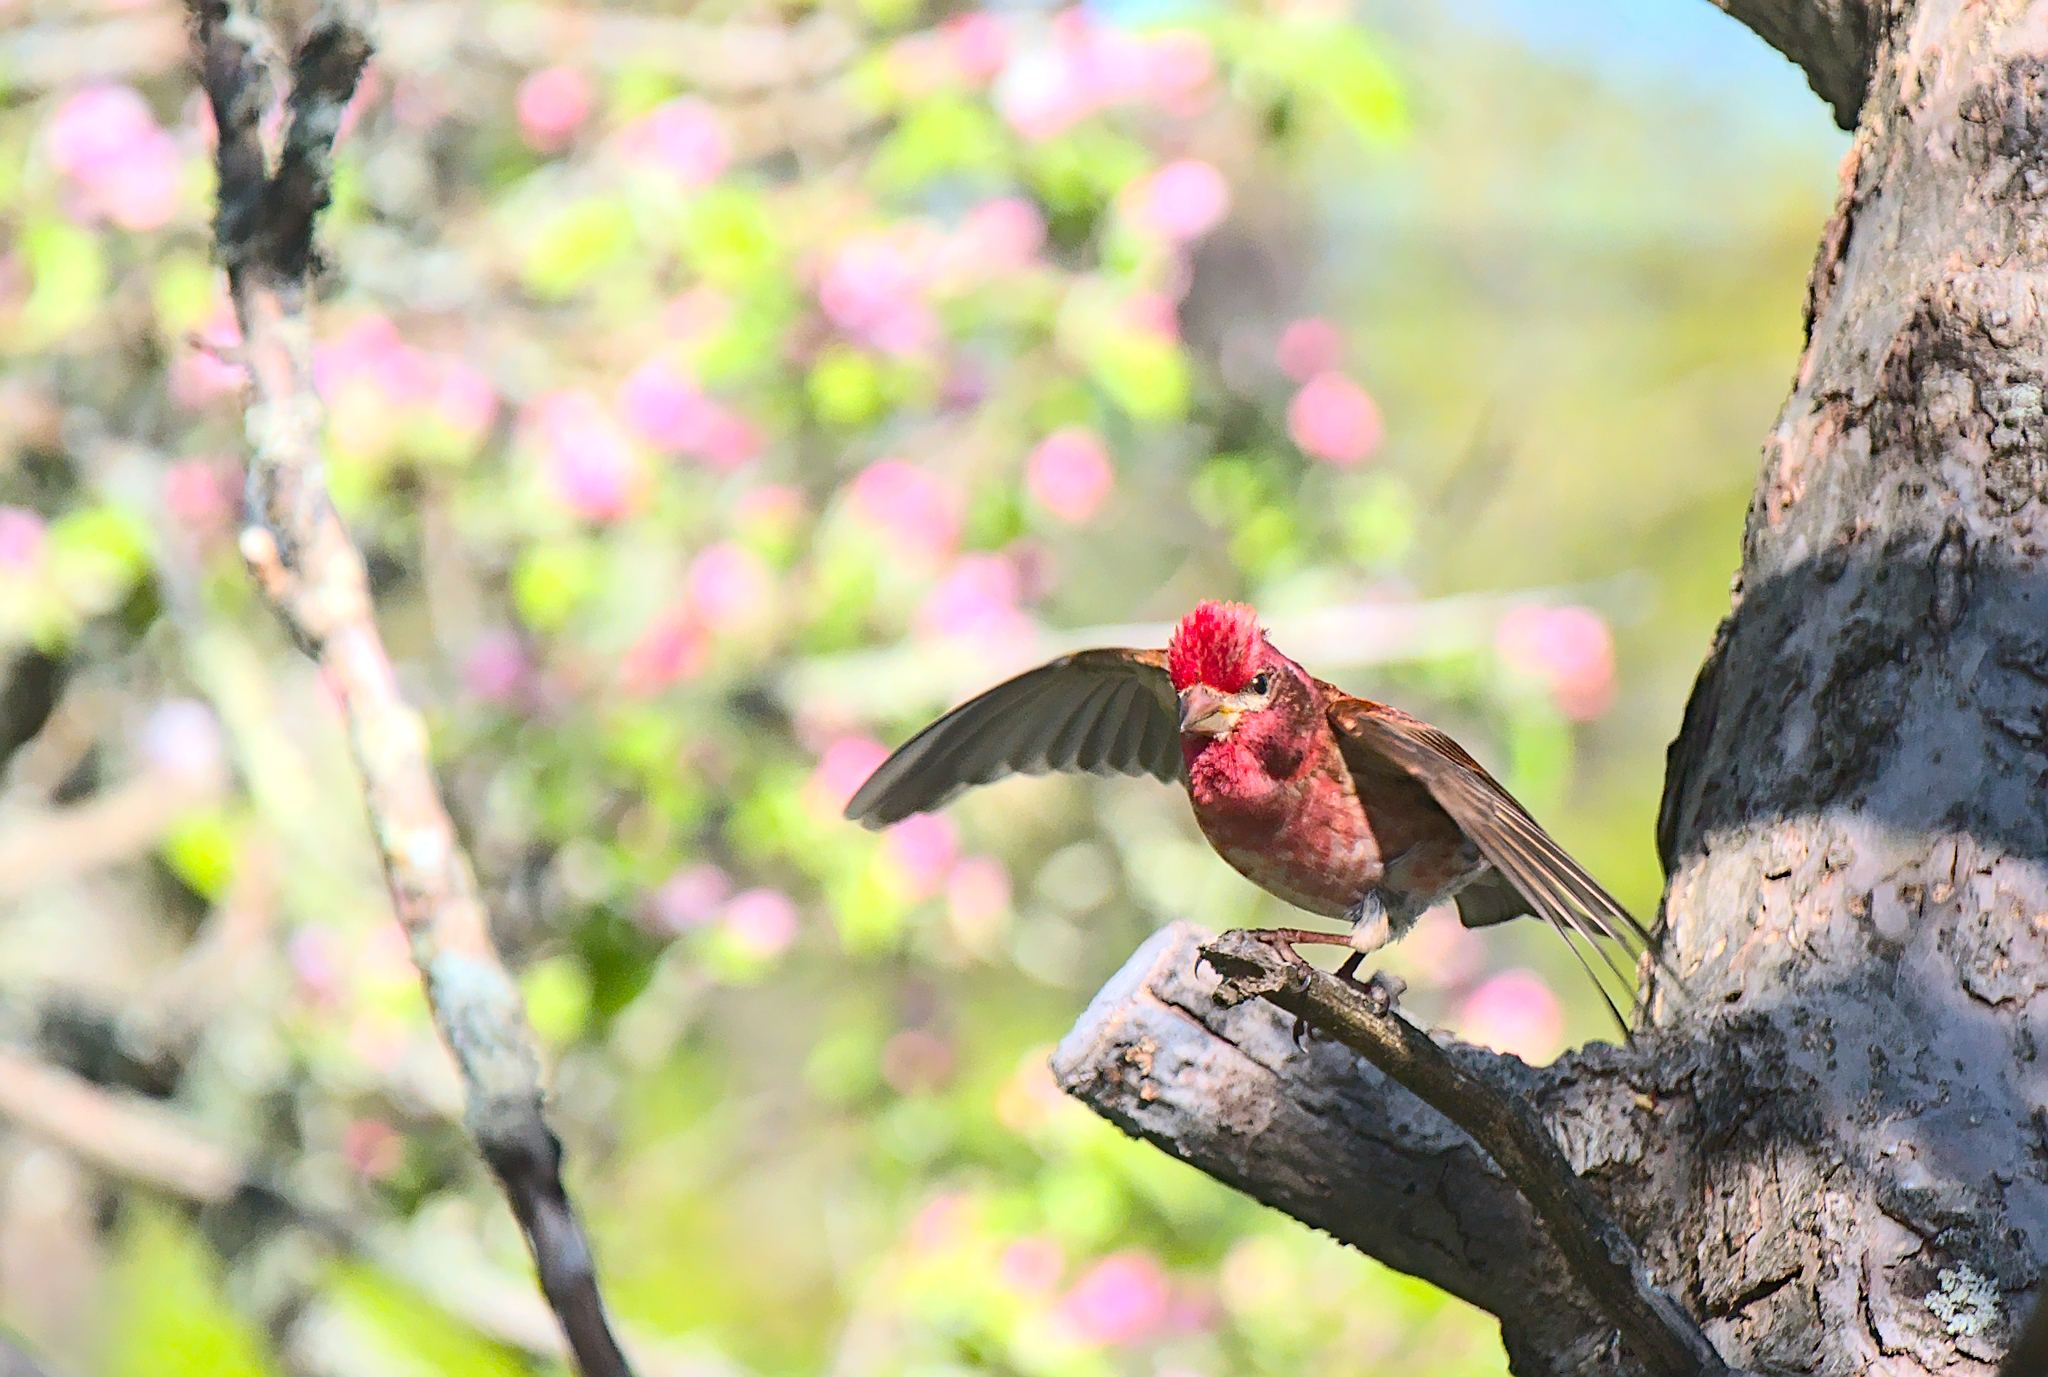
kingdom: Animalia
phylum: Chordata
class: Aves
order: Passeriformes
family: Fringillidae
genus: Haemorhous
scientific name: Haemorhous purpureus
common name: Purple finch
